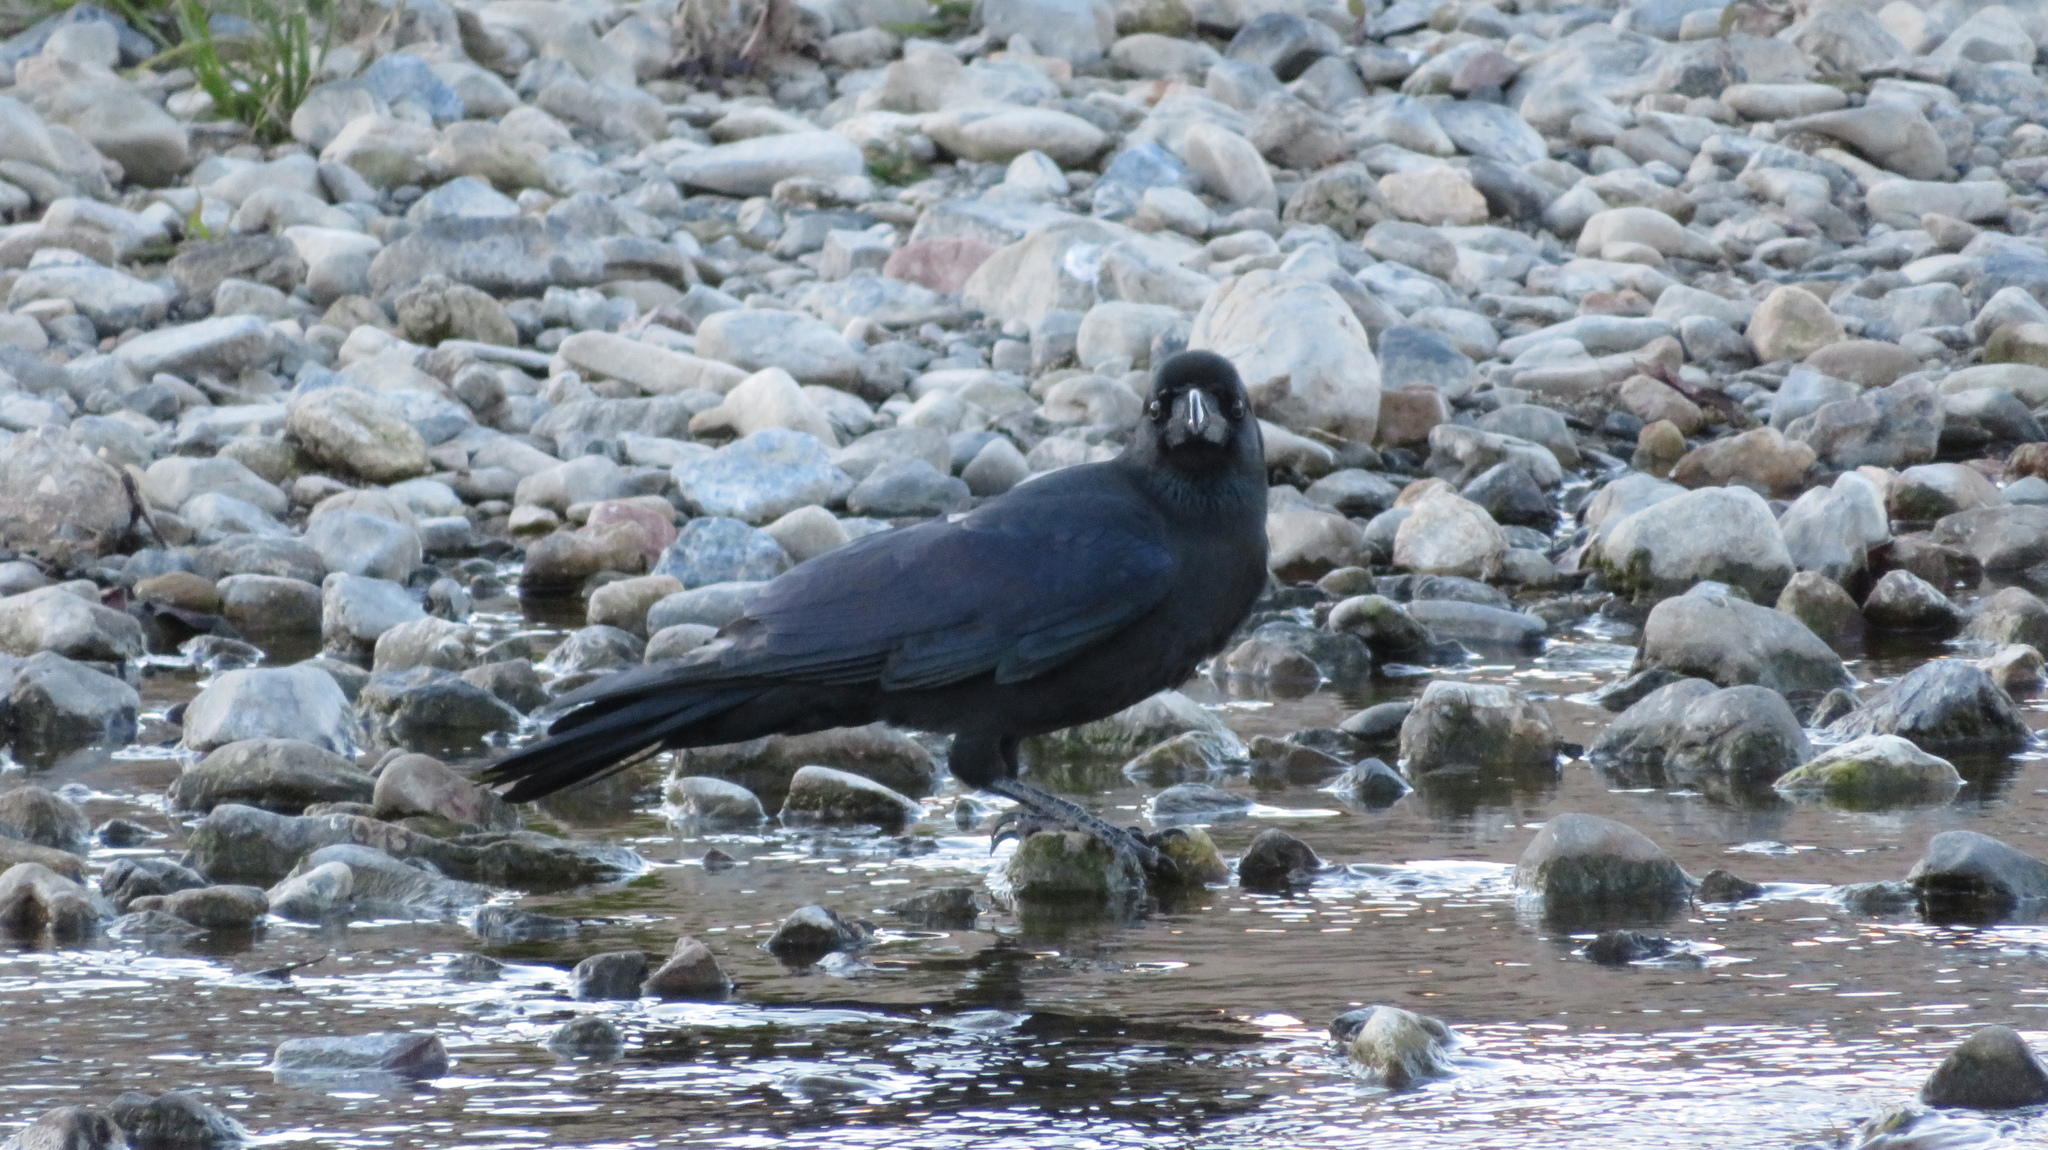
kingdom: Animalia
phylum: Chordata
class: Aves
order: Passeriformes
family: Corvidae
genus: Corvus
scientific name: Corvus macrorhynchos
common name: Large-billed crow
